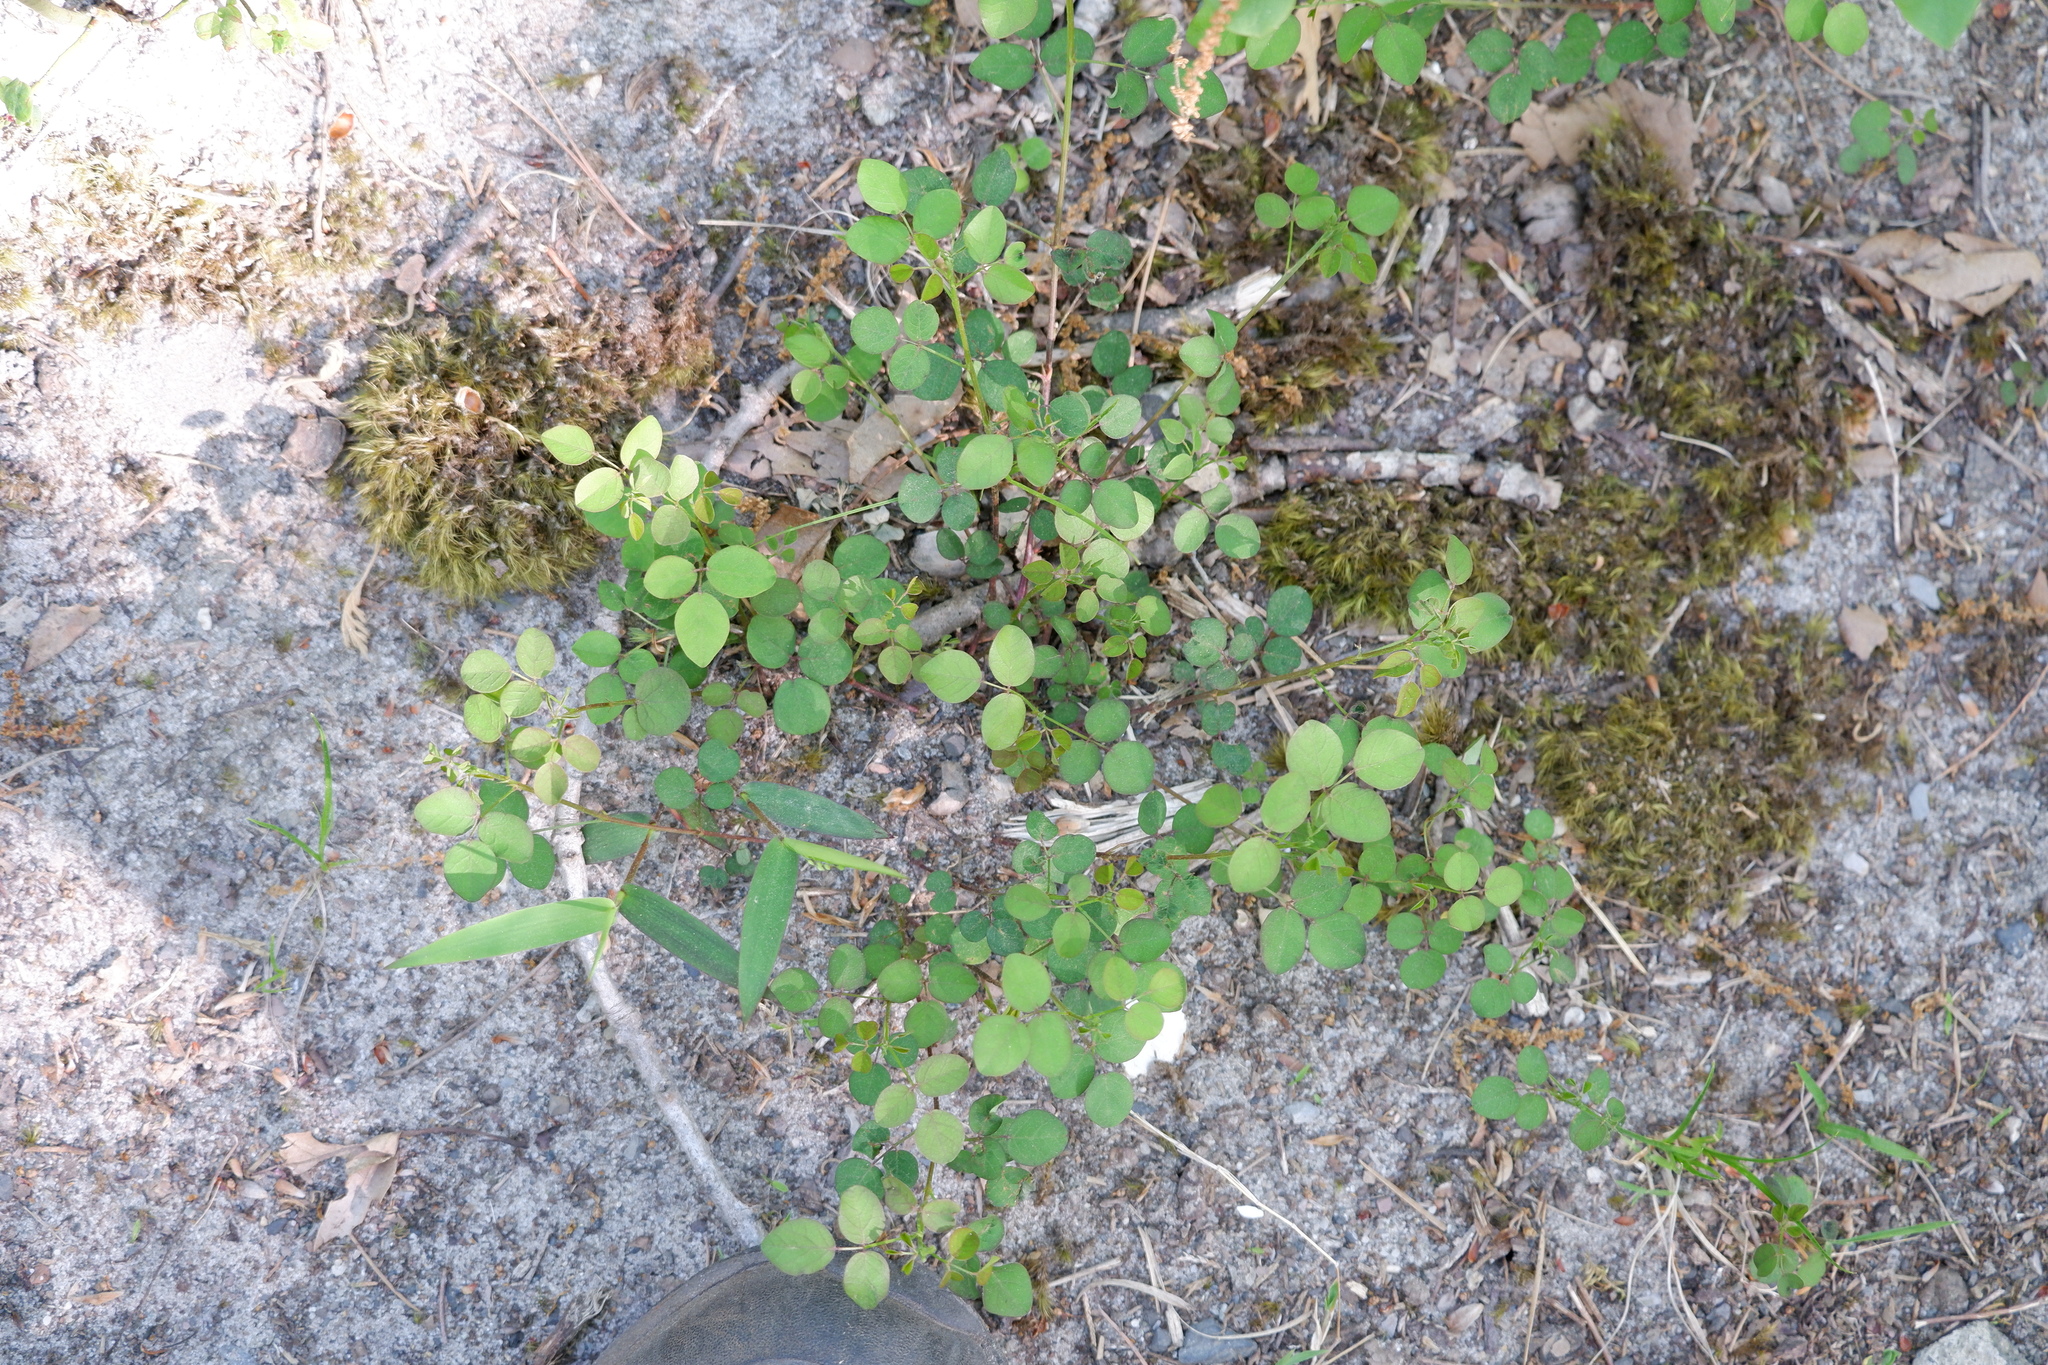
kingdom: Plantae
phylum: Tracheophyta
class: Magnoliopsida
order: Fabales
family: Fabaceae
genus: Desmodium
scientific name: Desmodium marilandicum
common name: Maryland tick-trefoil
